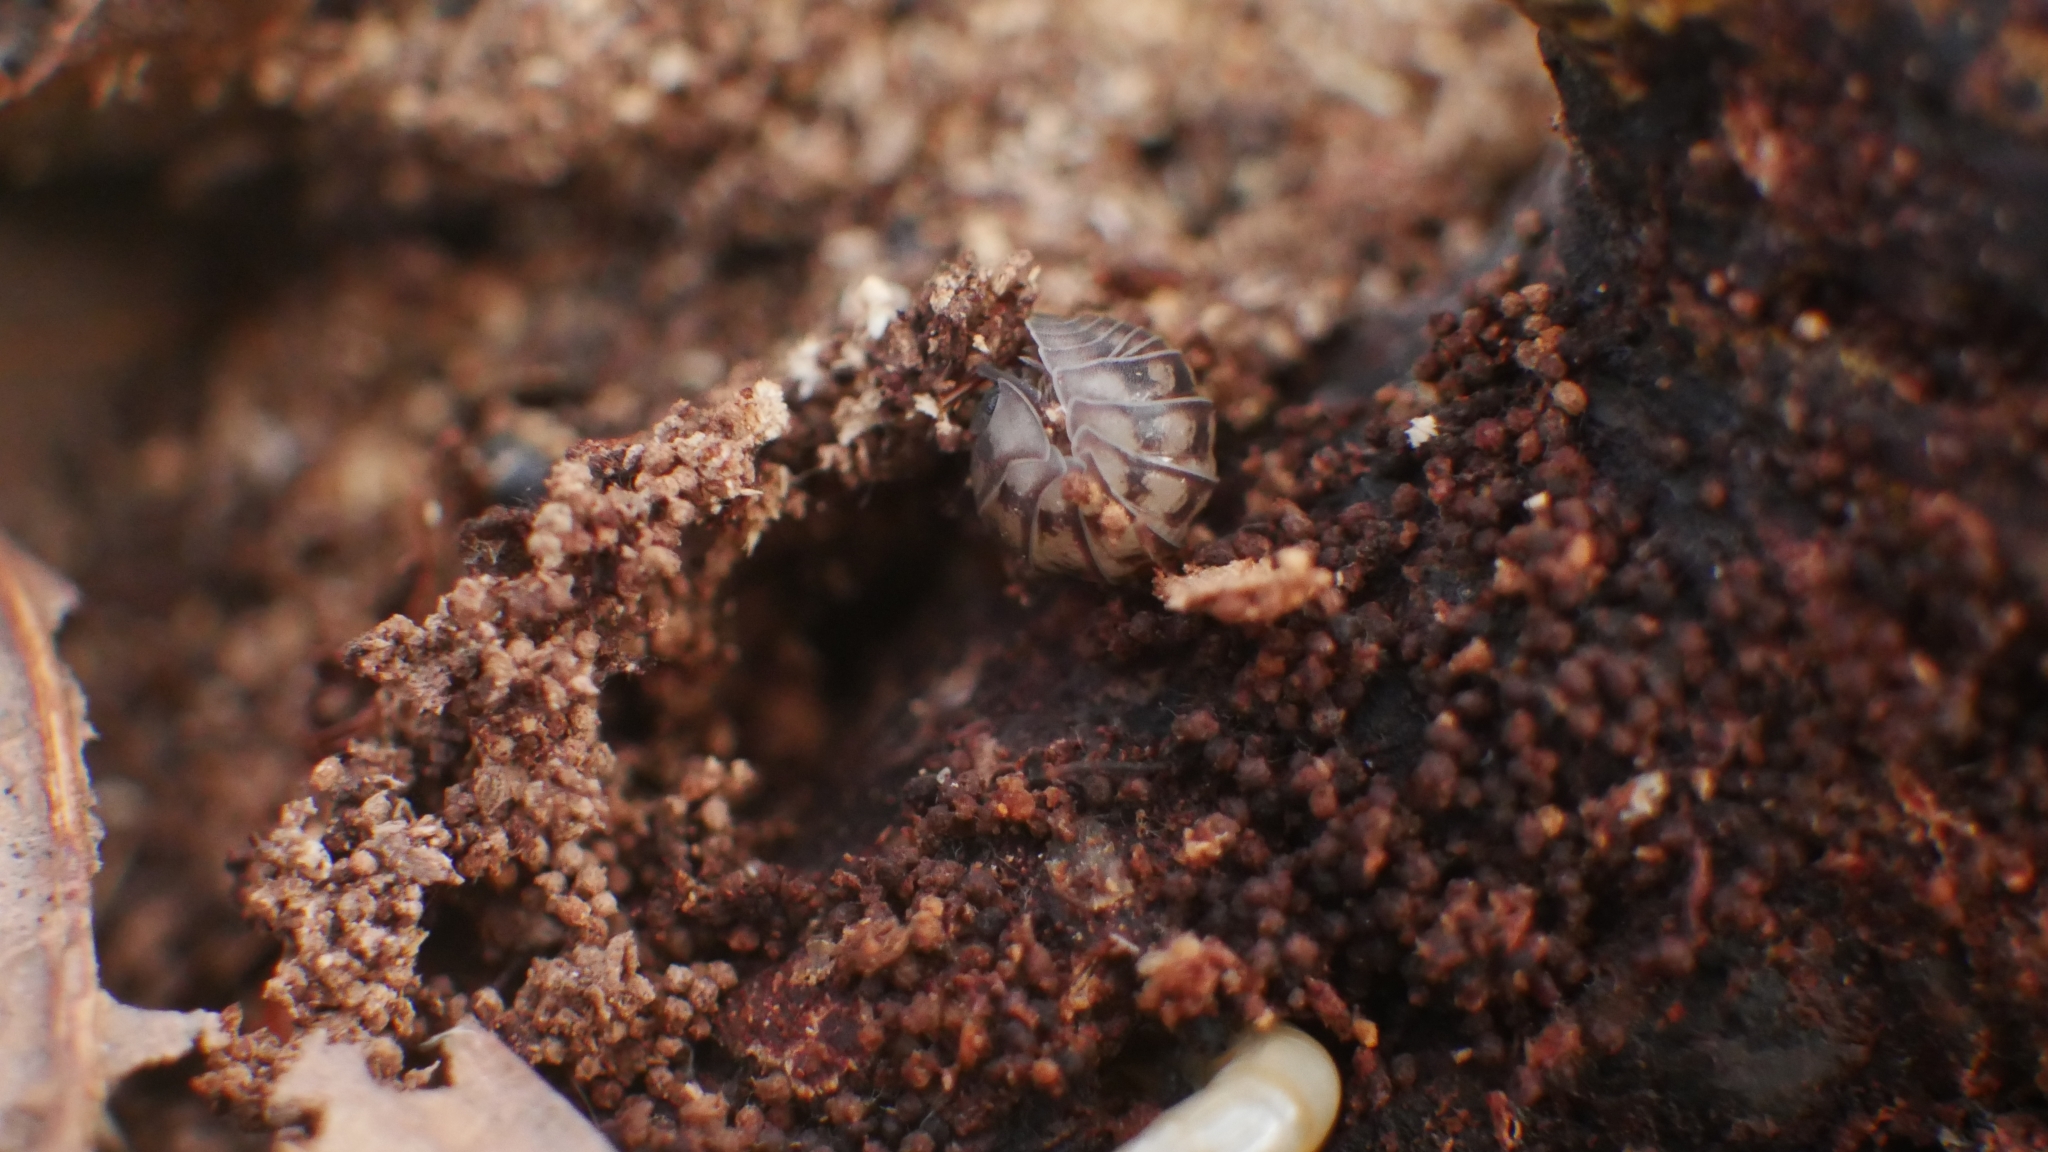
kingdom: Animalia
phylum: Arthropoda
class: Malacostraca
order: Isopoda
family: Armadillidiidae
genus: Armadillidium
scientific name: Armadillidium nasatum
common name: Isopod
